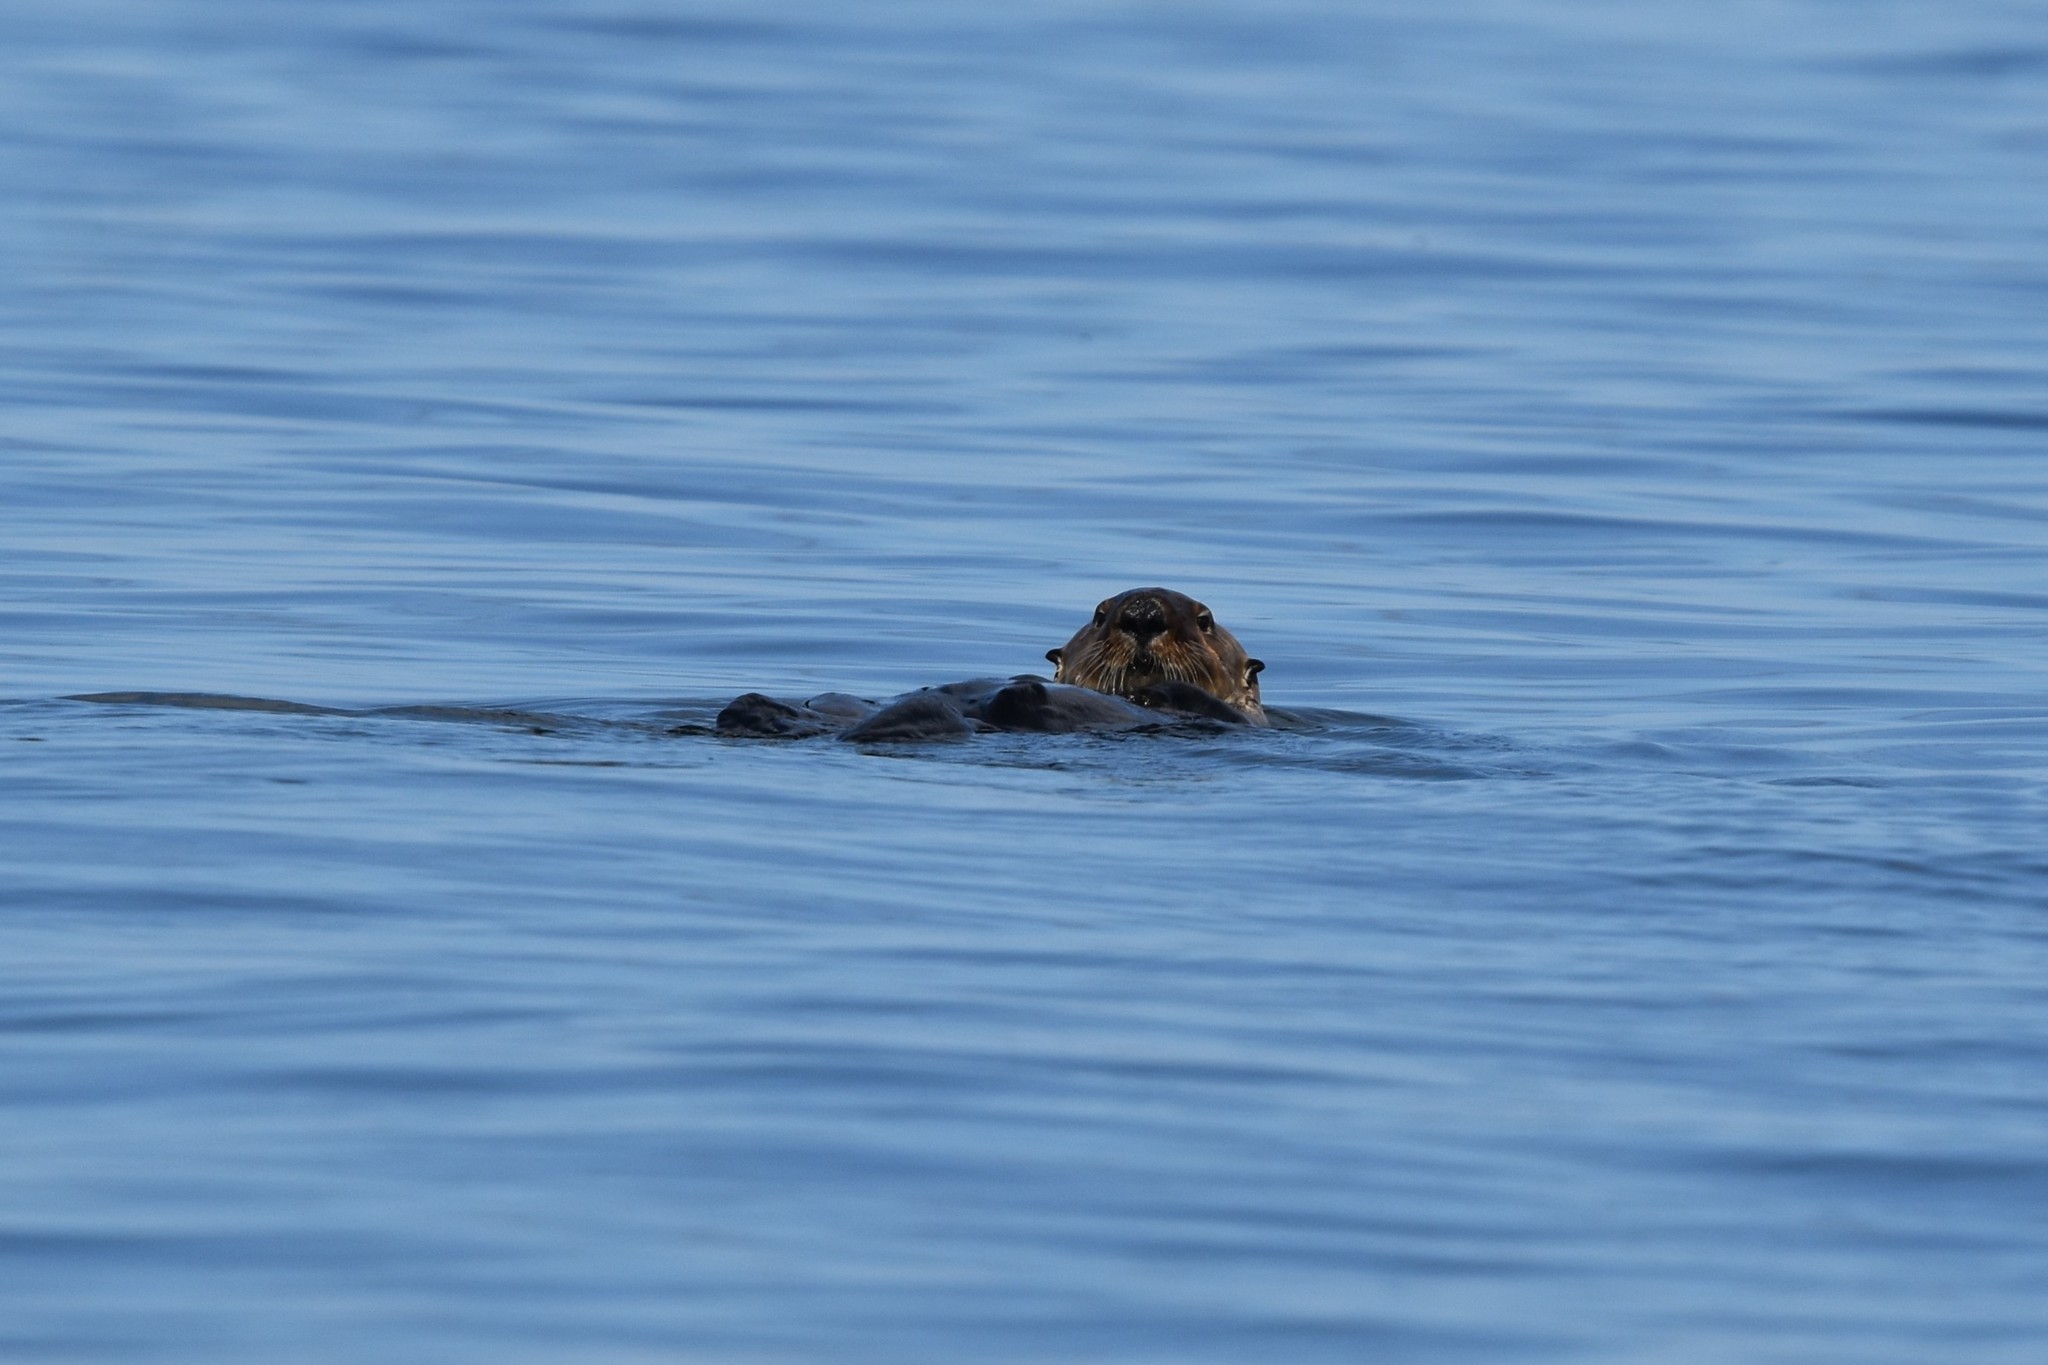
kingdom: Animalia
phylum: Chordata
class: Mammalia
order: Carnivora
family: Mustelidae
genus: Enhydra
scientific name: Enhydra lutris
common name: Sea otter
